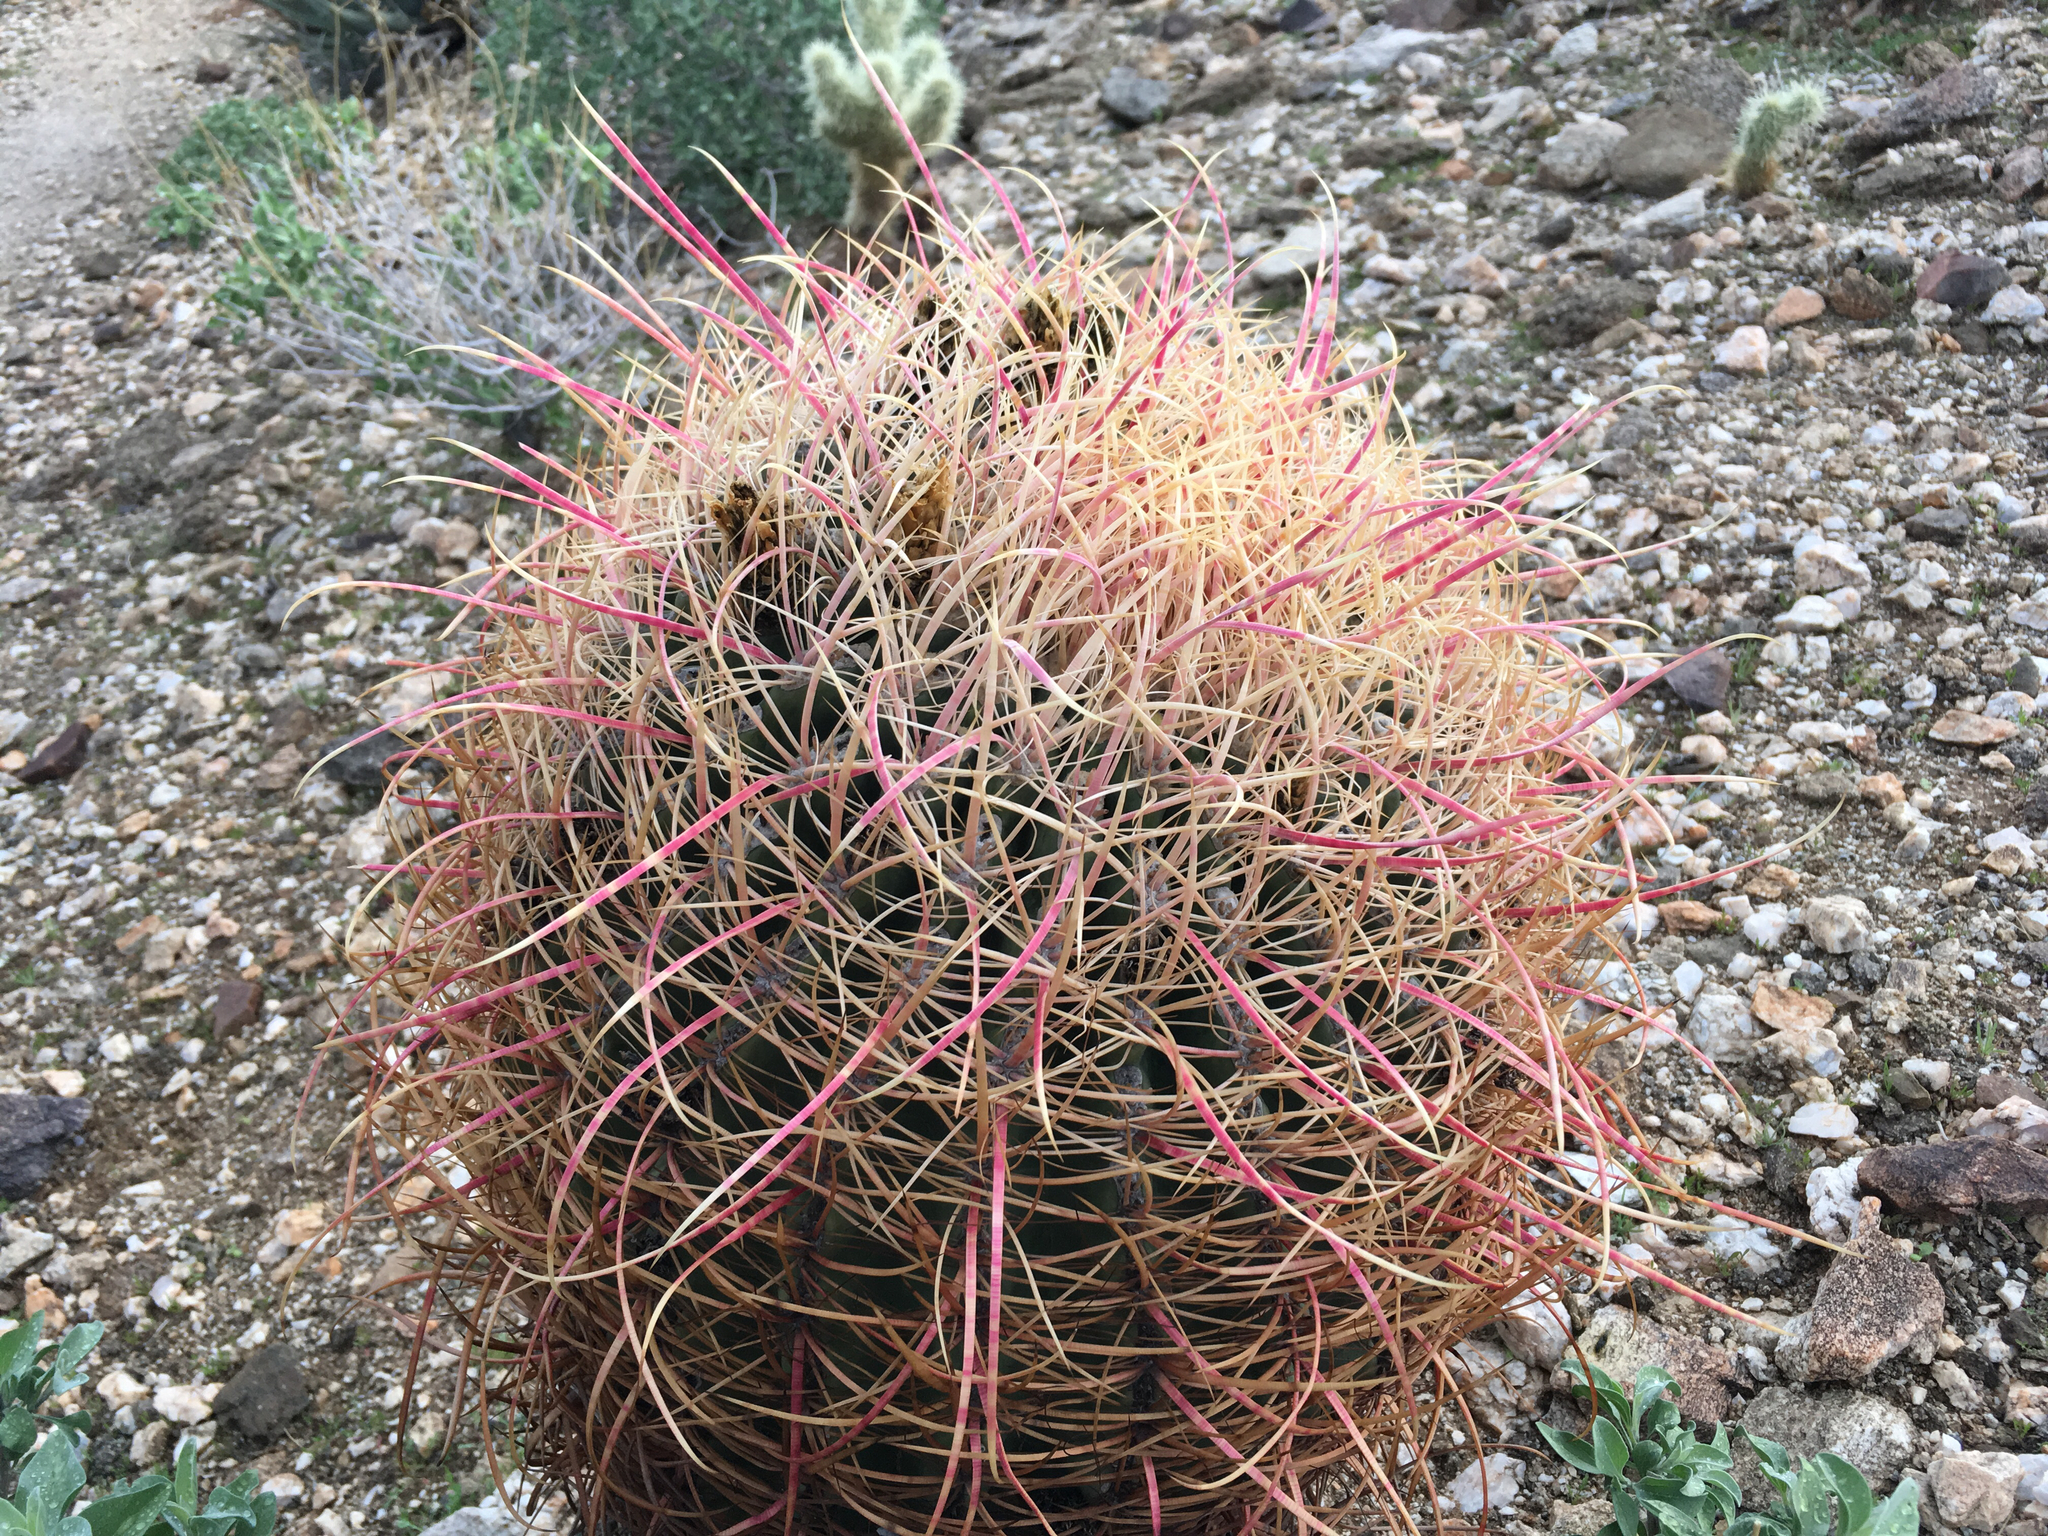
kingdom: Plantae
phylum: Tracheophyta
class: Magnoliopsida
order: Caryophyllales
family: Cactaceae
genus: Ferocactus
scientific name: Ferocactus cylindraceus
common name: California barrel cactus
